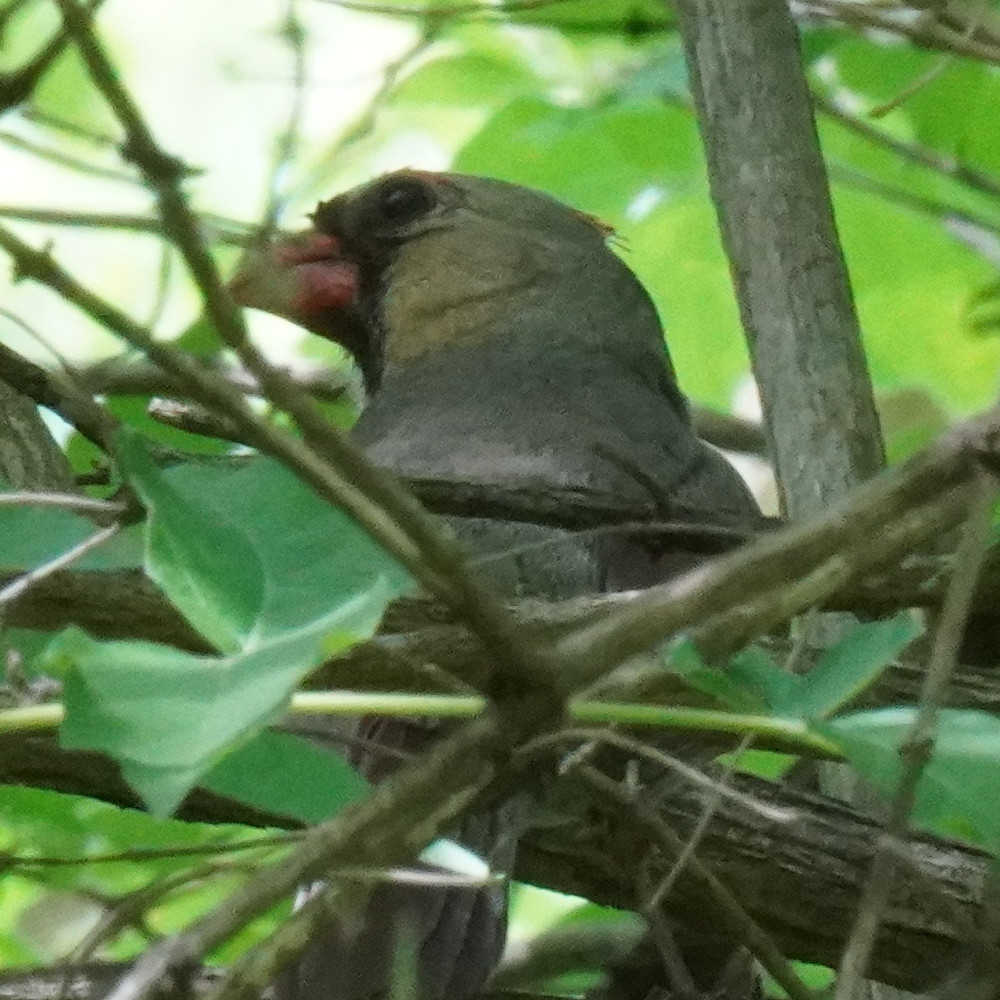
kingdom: Animalia
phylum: Chordata
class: Aves
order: Passeriformes
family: Cardinalidae
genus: Cardinalis
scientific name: Cardinalis cardinalis
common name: Northern cardinal
